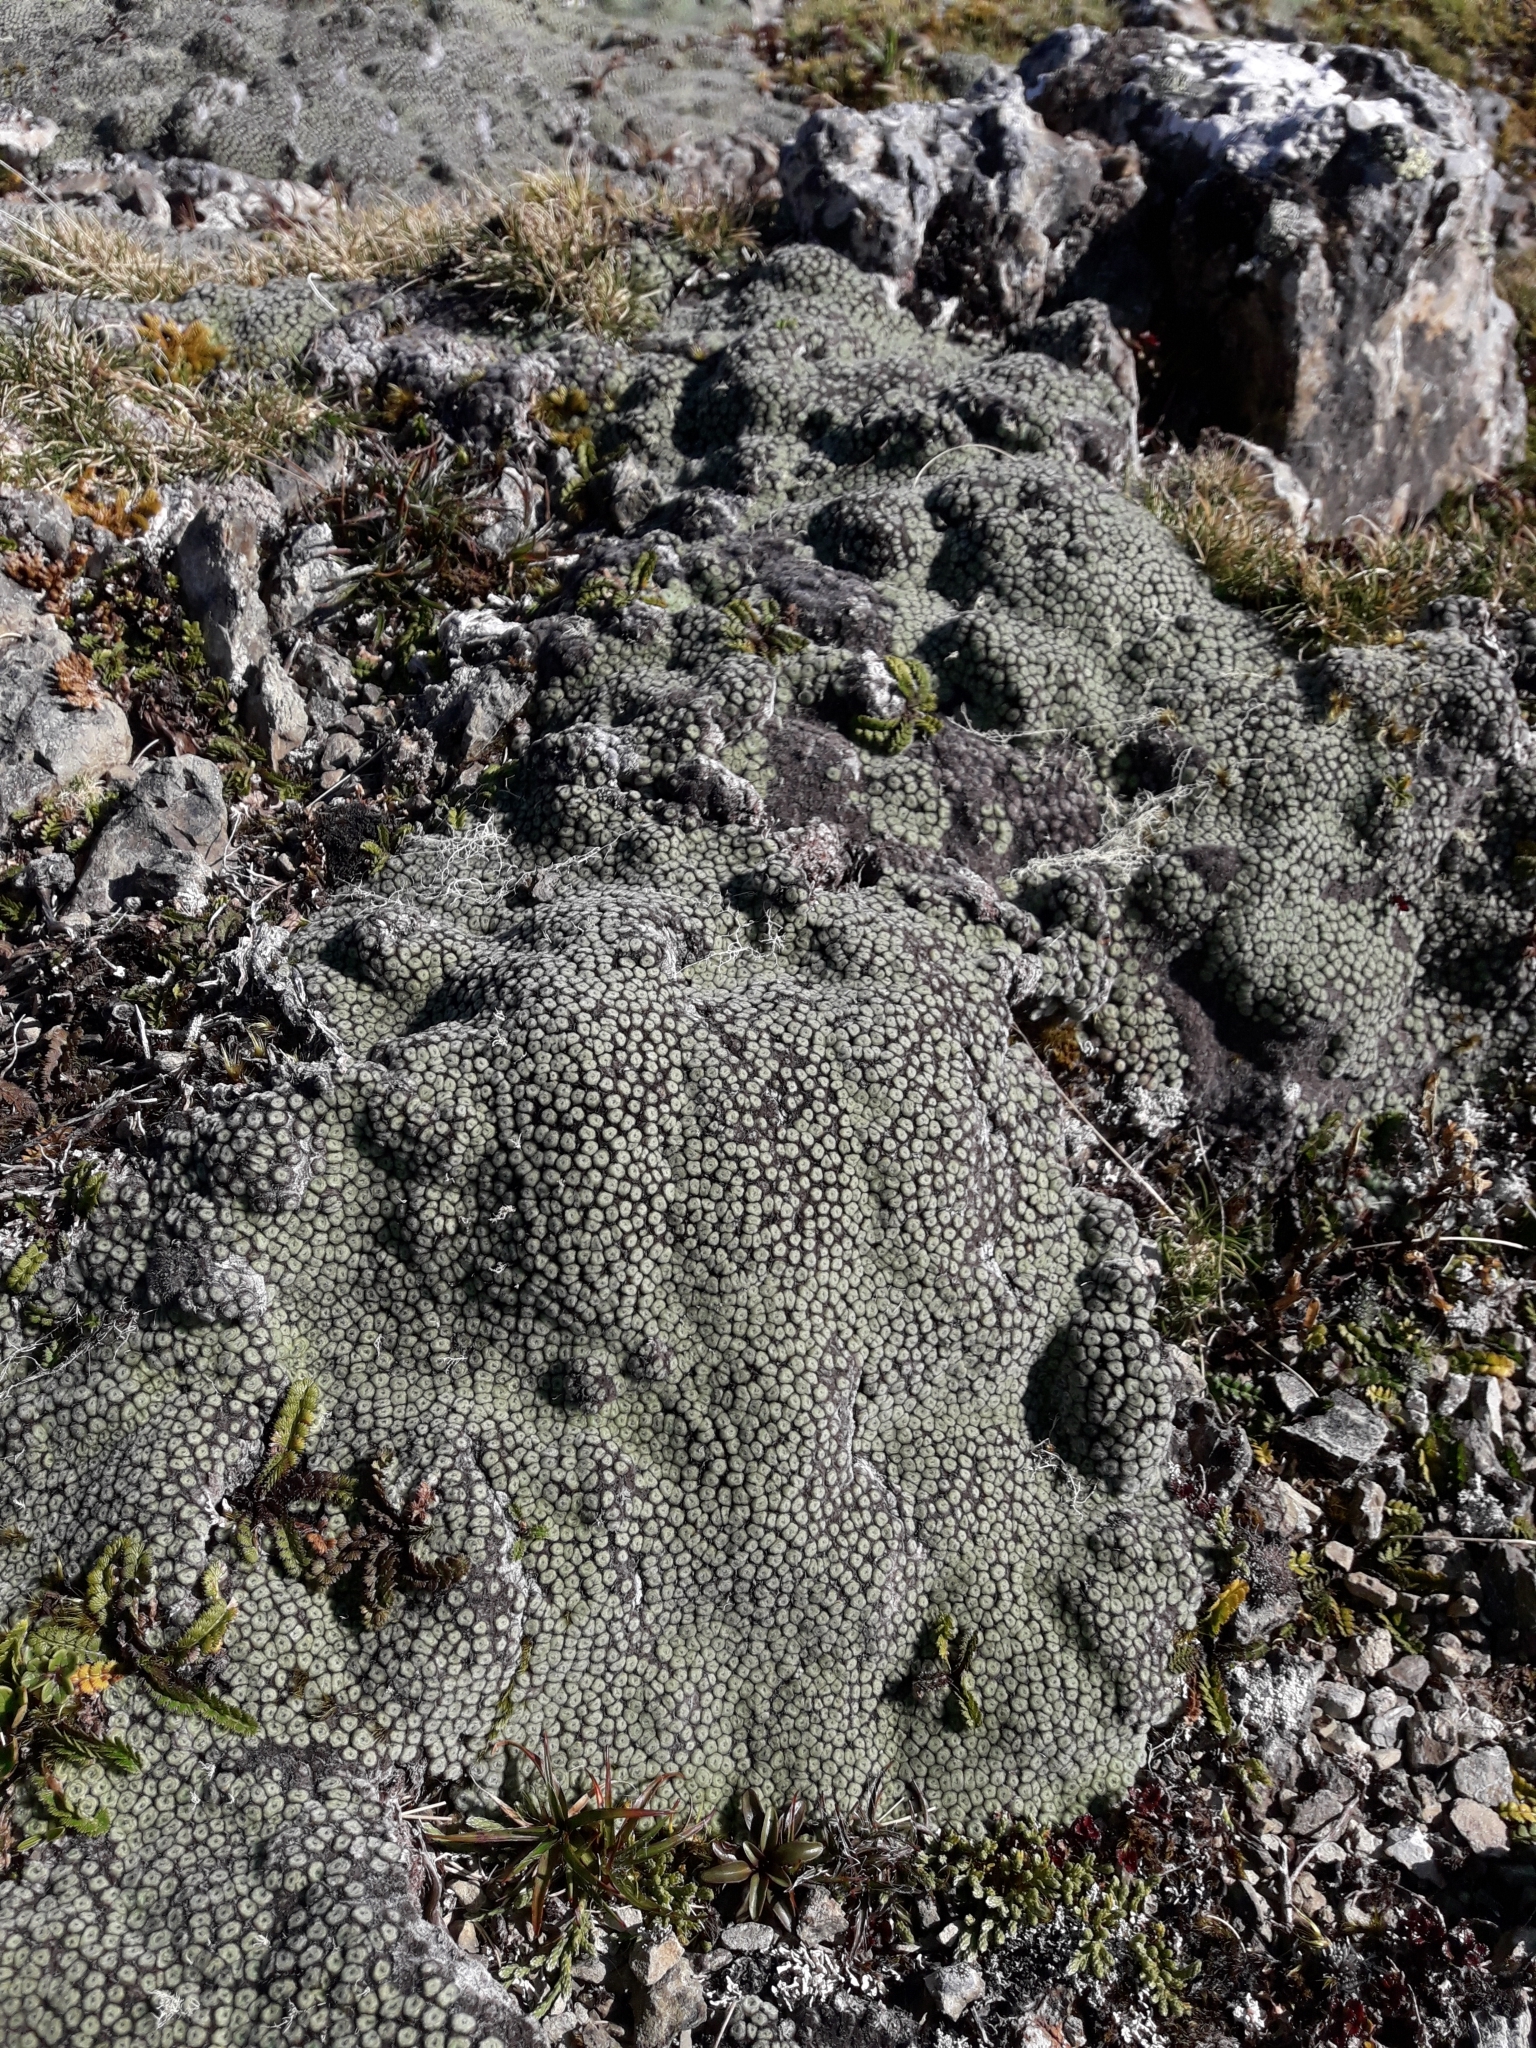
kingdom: Plantae
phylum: Tracheophyta
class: Magnoliopsida
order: Asterales
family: Asteraceae
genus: Raoulia
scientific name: Raoulia rubra
